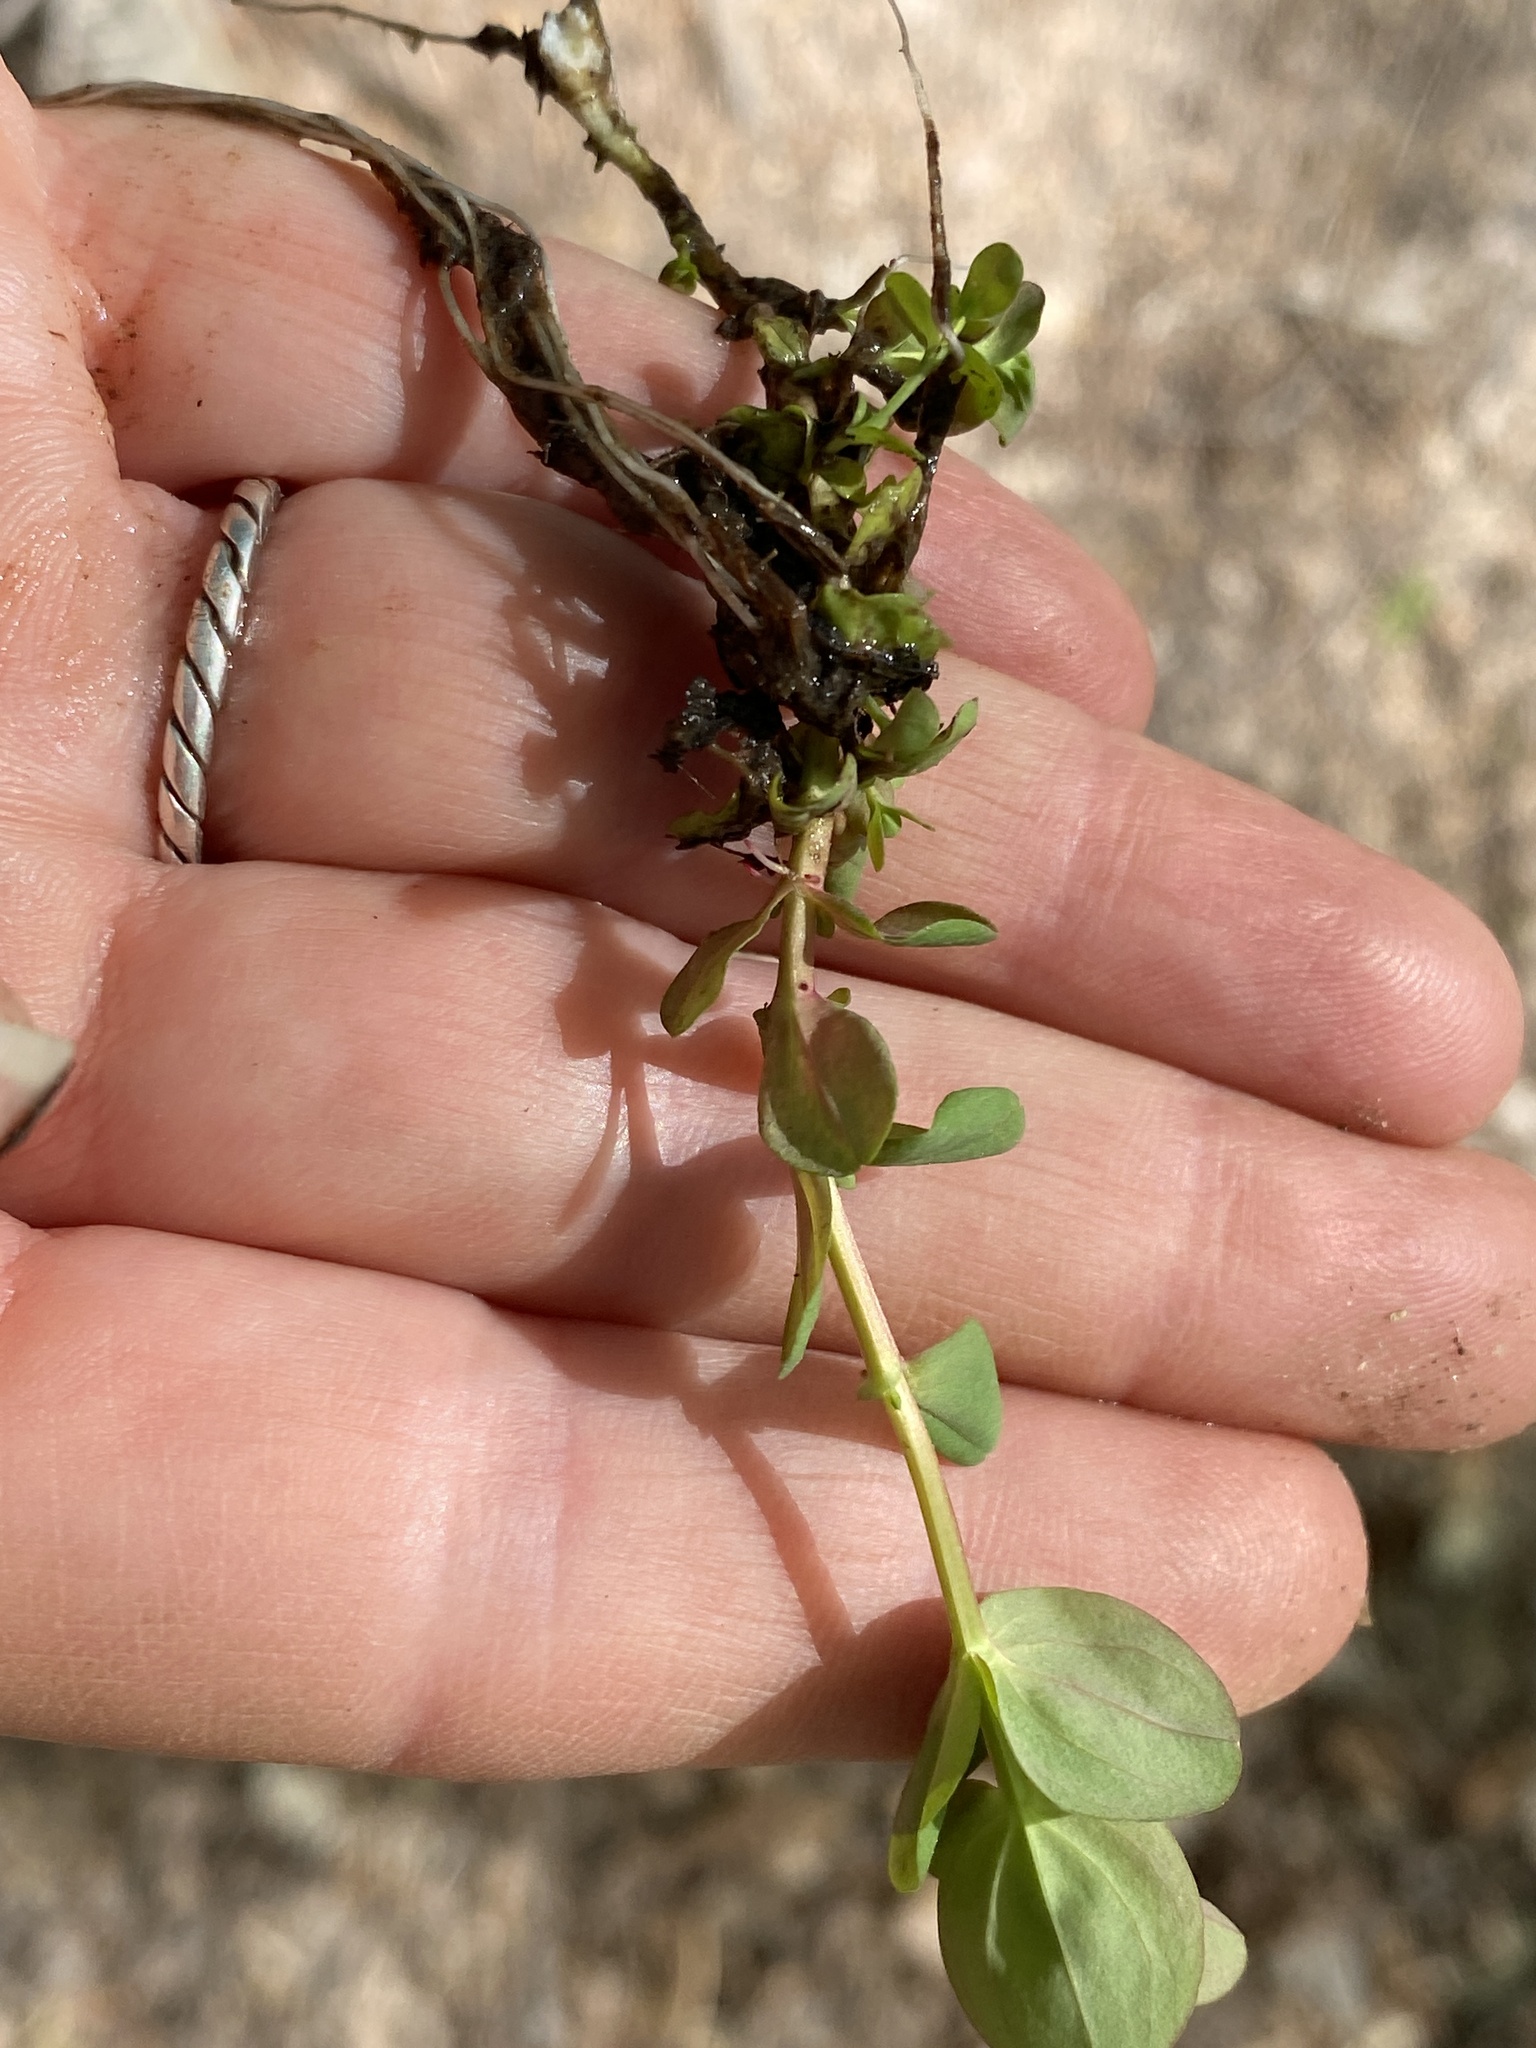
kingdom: Plantae
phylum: Tracheophyta
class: Magnoliopsida
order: Malpighiales
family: Hypericaceae
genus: Hypericum
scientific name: Hypericum mutilum
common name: Dwarf st. john's-wort
